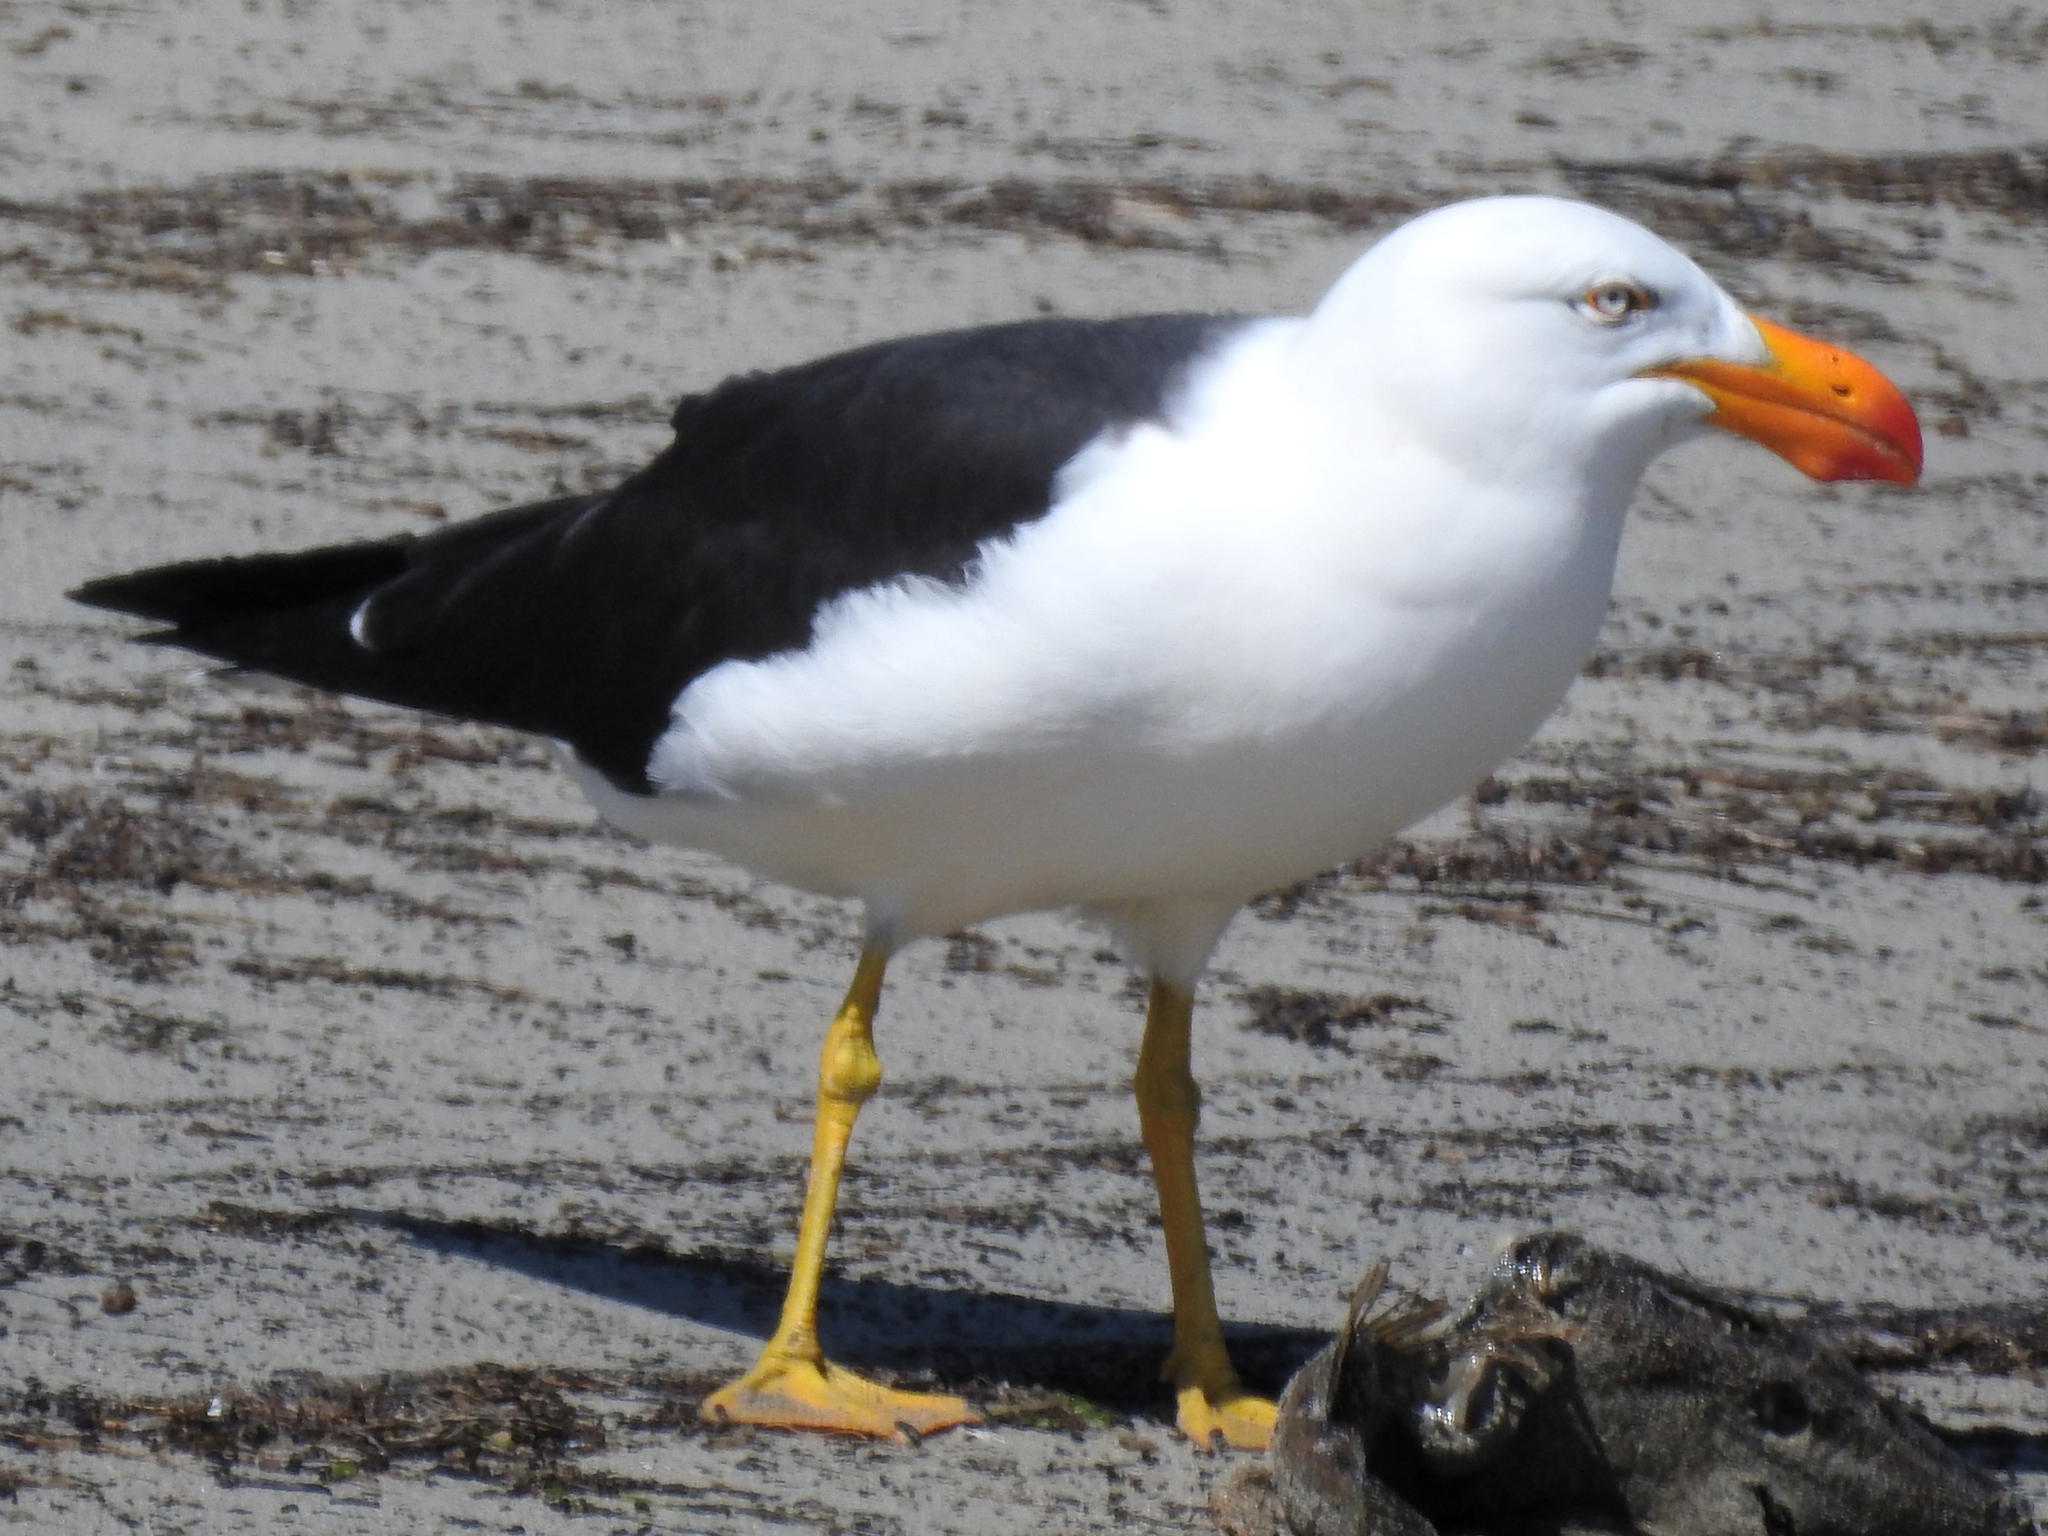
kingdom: Animalia
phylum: Chordata
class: Aves
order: Charadriiformes
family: Laridae
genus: Larus
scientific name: Larus pacificus
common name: Pacific gull
